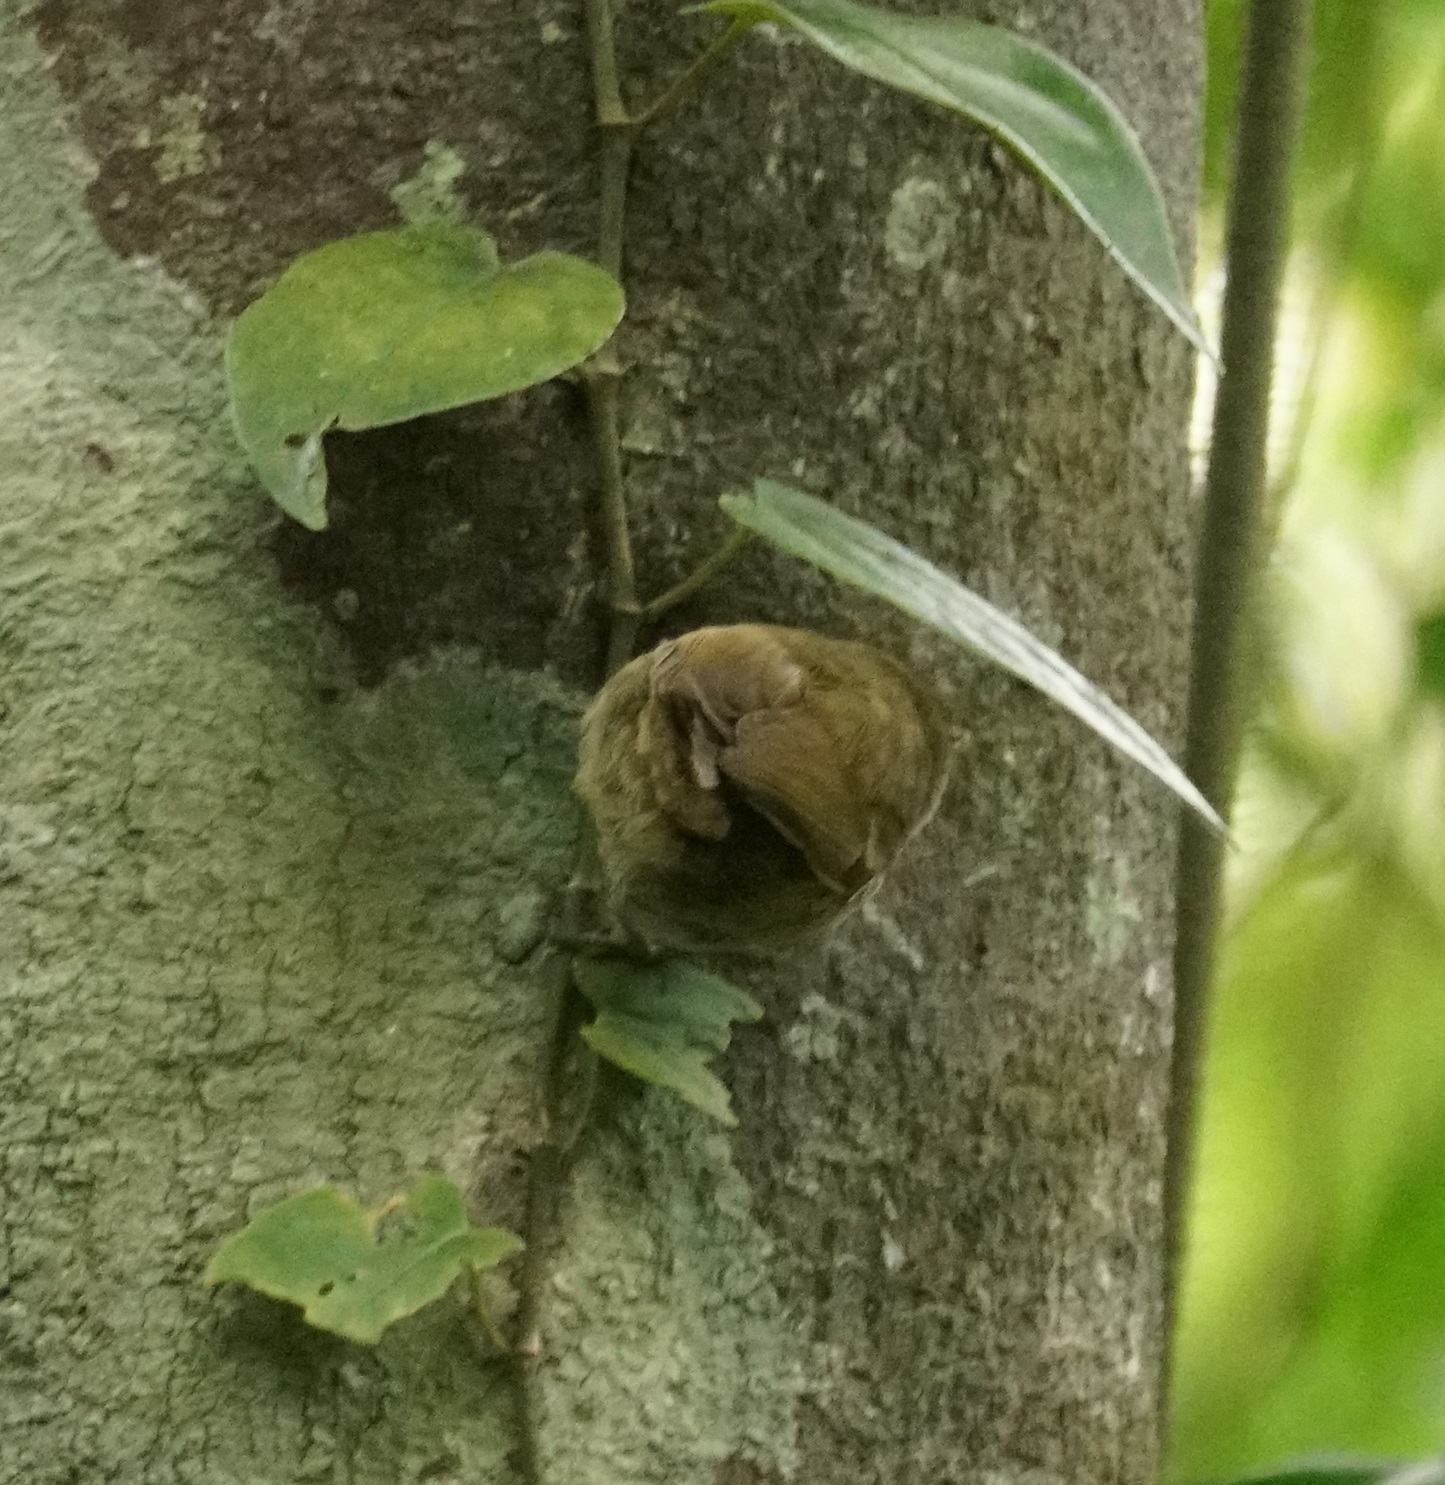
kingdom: Animalia
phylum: Chordata
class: Aves
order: Passeriformes
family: Petroicidae
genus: Eopsaltria
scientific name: Eopsaltria
